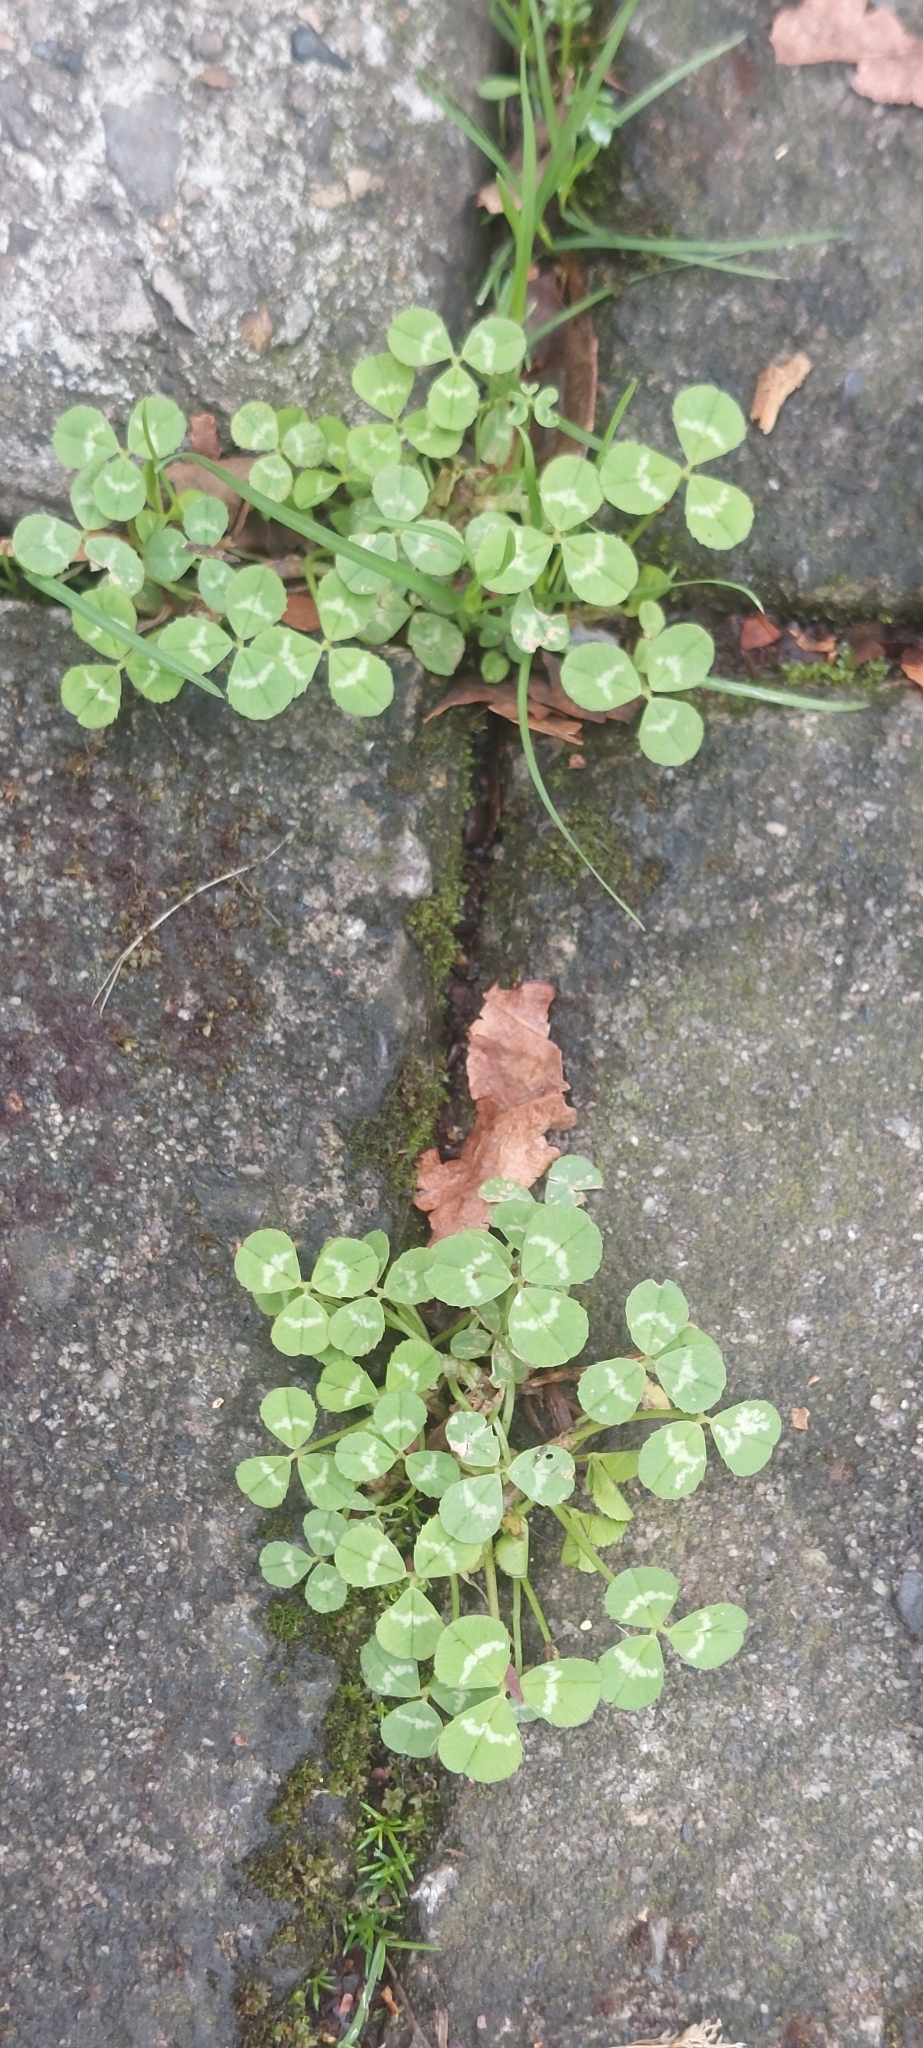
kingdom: Plantae
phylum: Tracheophyta
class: Magnoliopsida
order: Fabales
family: Fabaceae
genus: Trifolium
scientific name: Trifolium repens
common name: White clover
